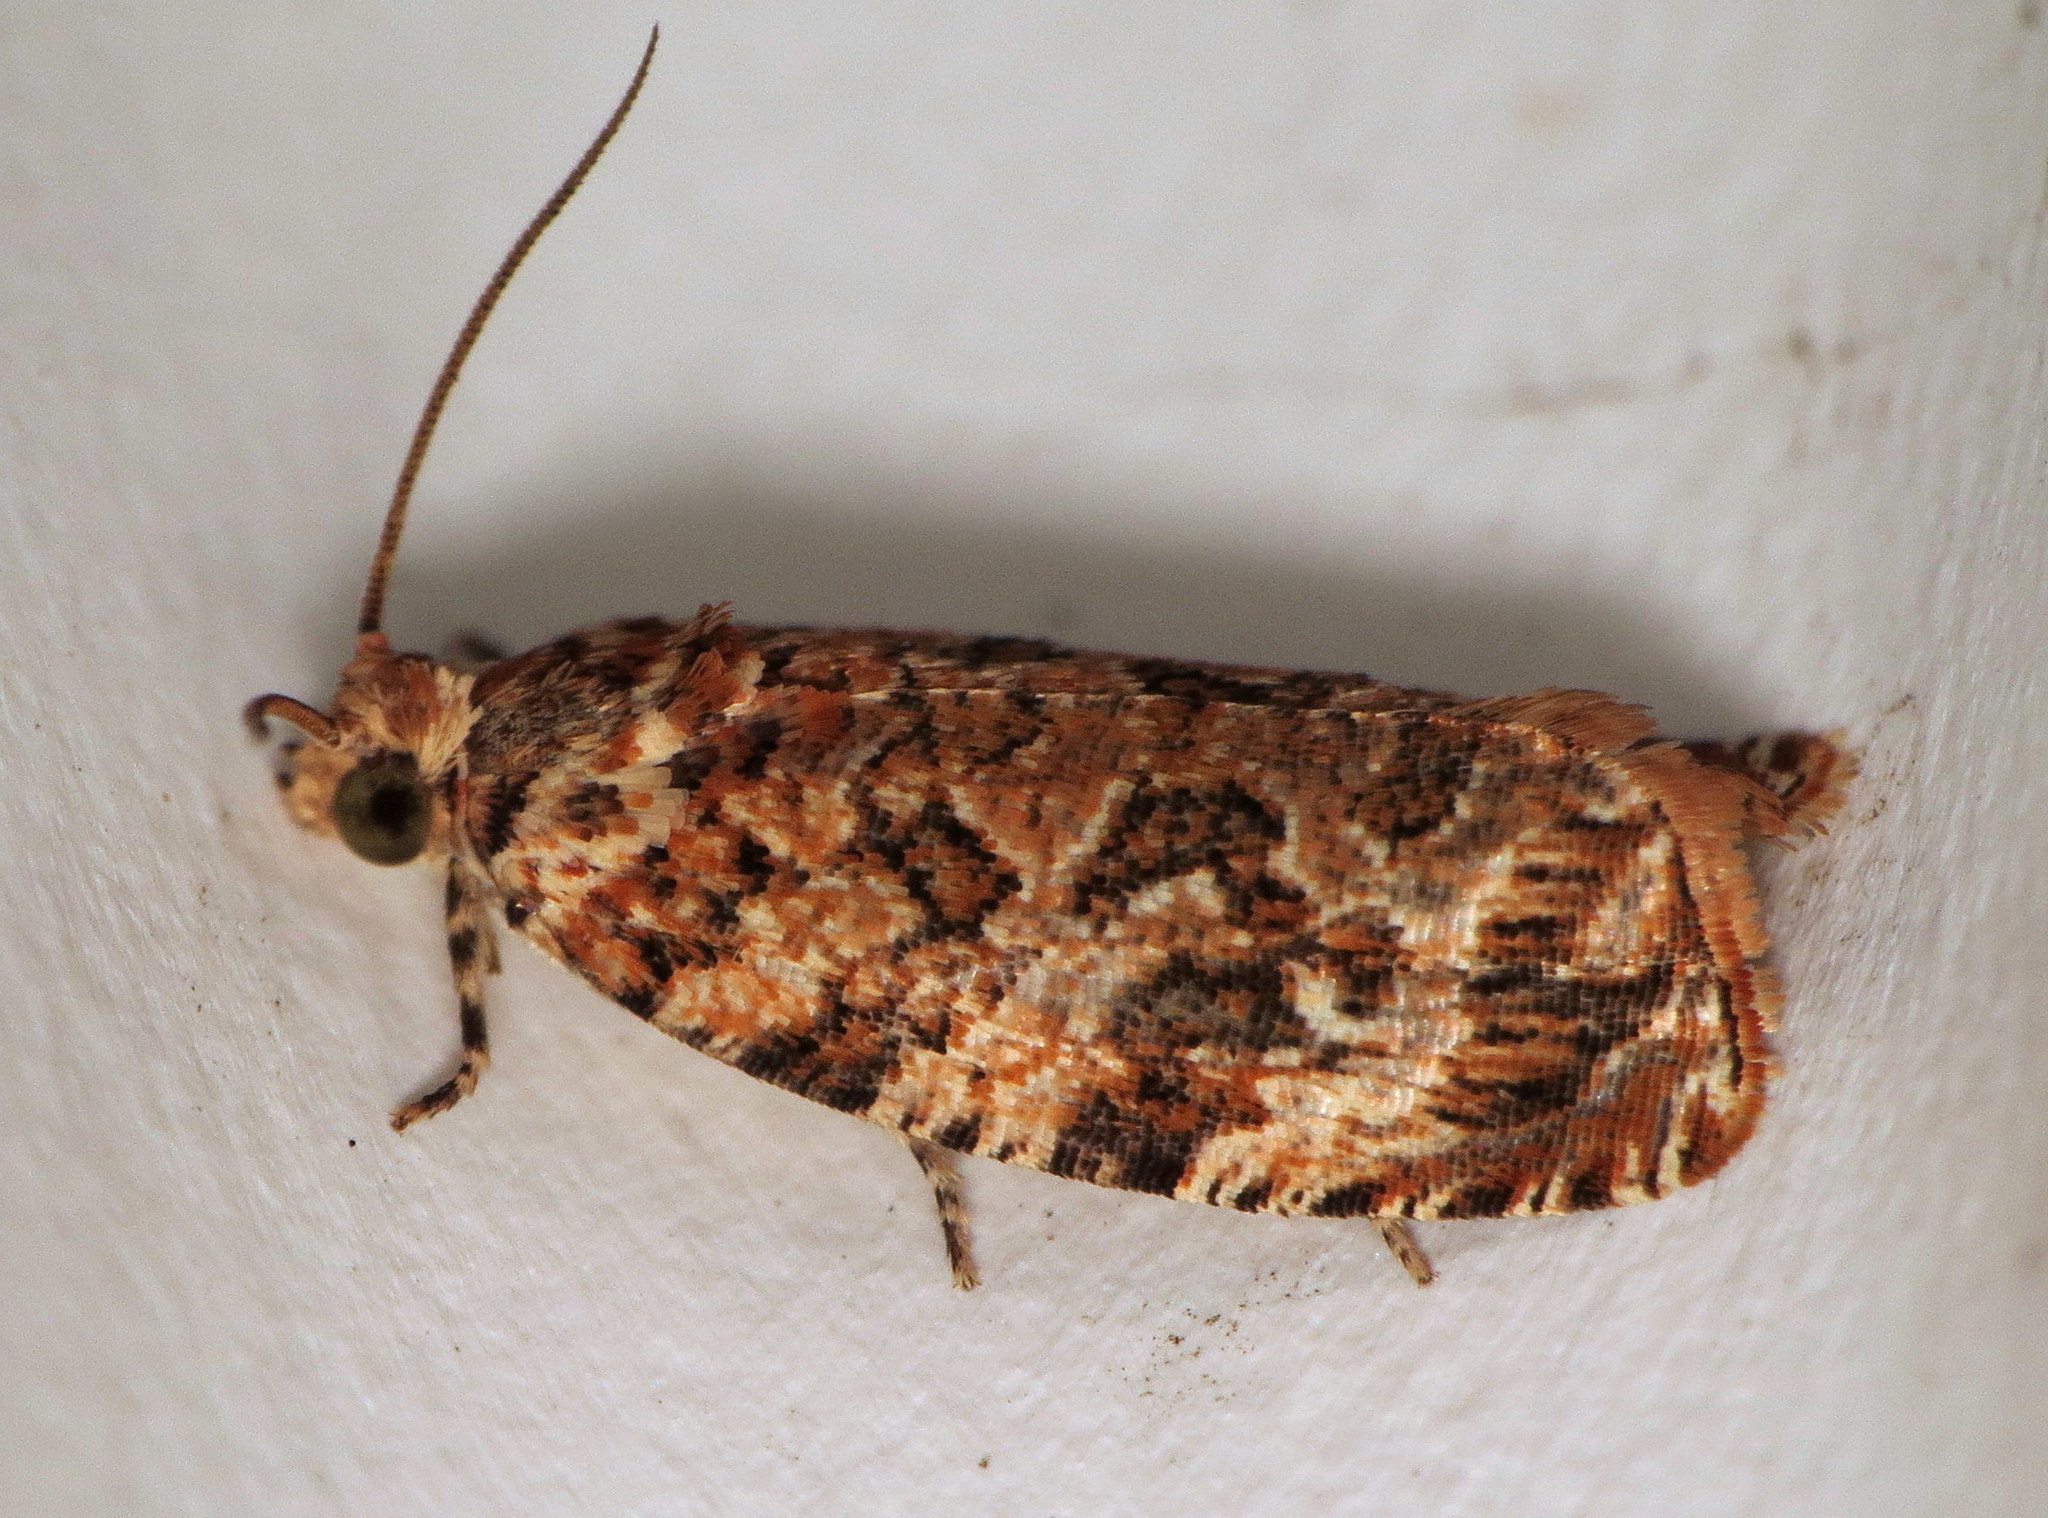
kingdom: Animalia
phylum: Arthropoda
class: Insecta
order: Lepidoptera
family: Tortricidae
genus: Phaecasiophora
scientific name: Phaecasiophora niveiguttana
